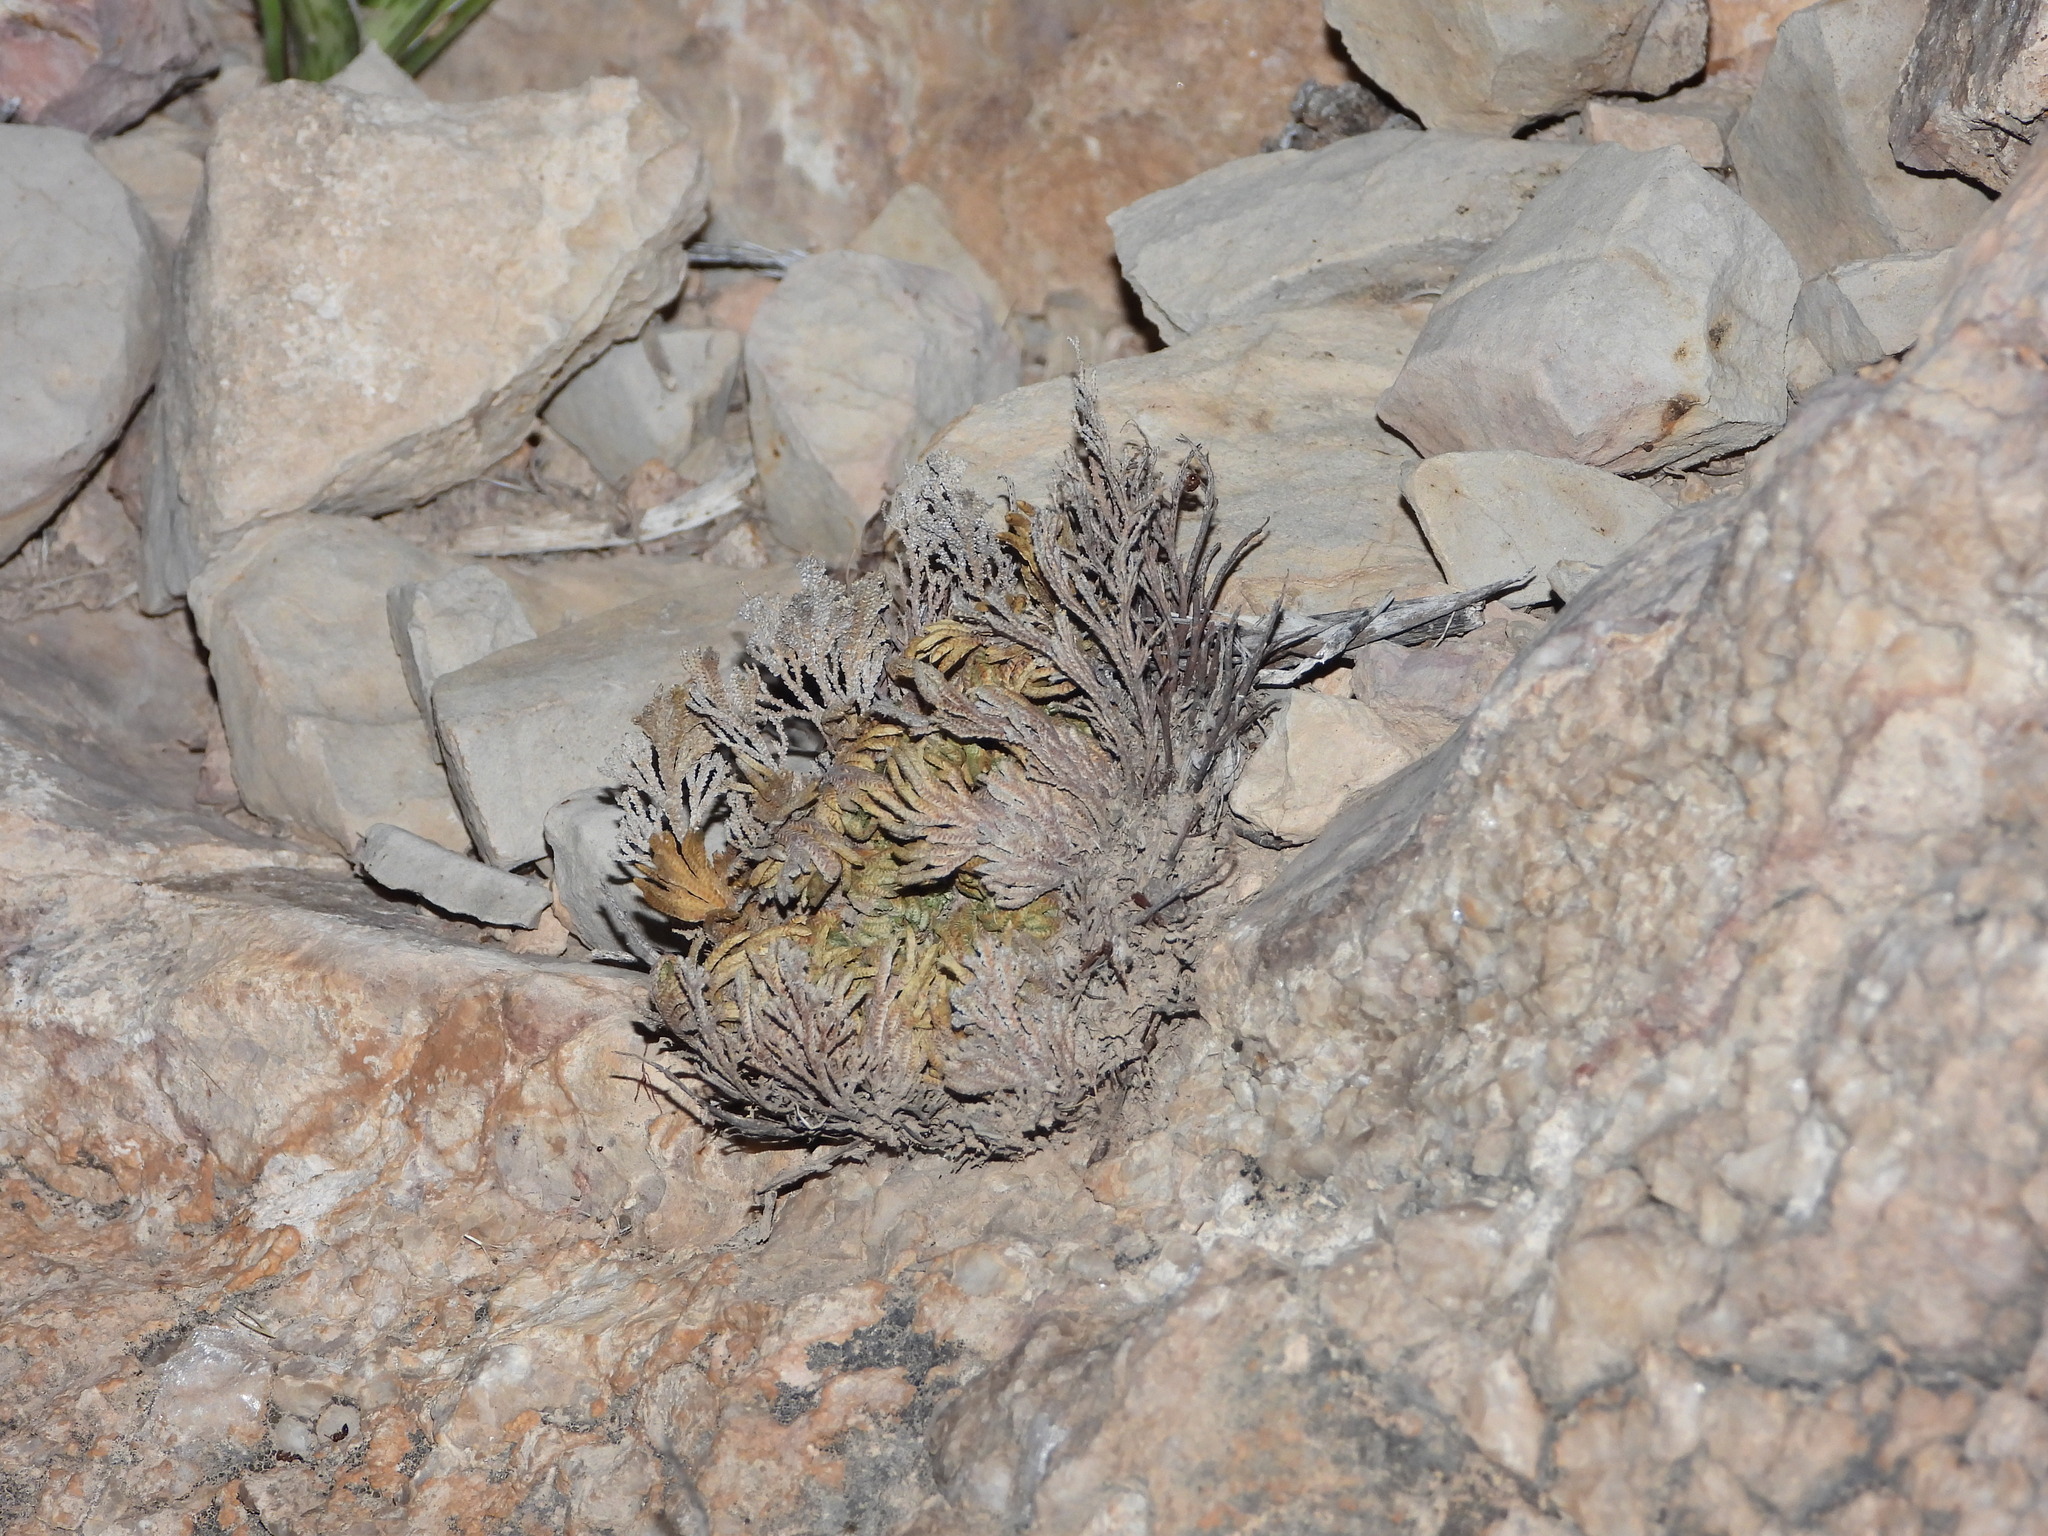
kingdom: Plantae
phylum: Tracheophyta
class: Lycopodiopsida
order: Selaginellales
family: Selaginellaceae
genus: Selaginella
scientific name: Selaginella lepidophylla
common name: Rose-of-jericho
